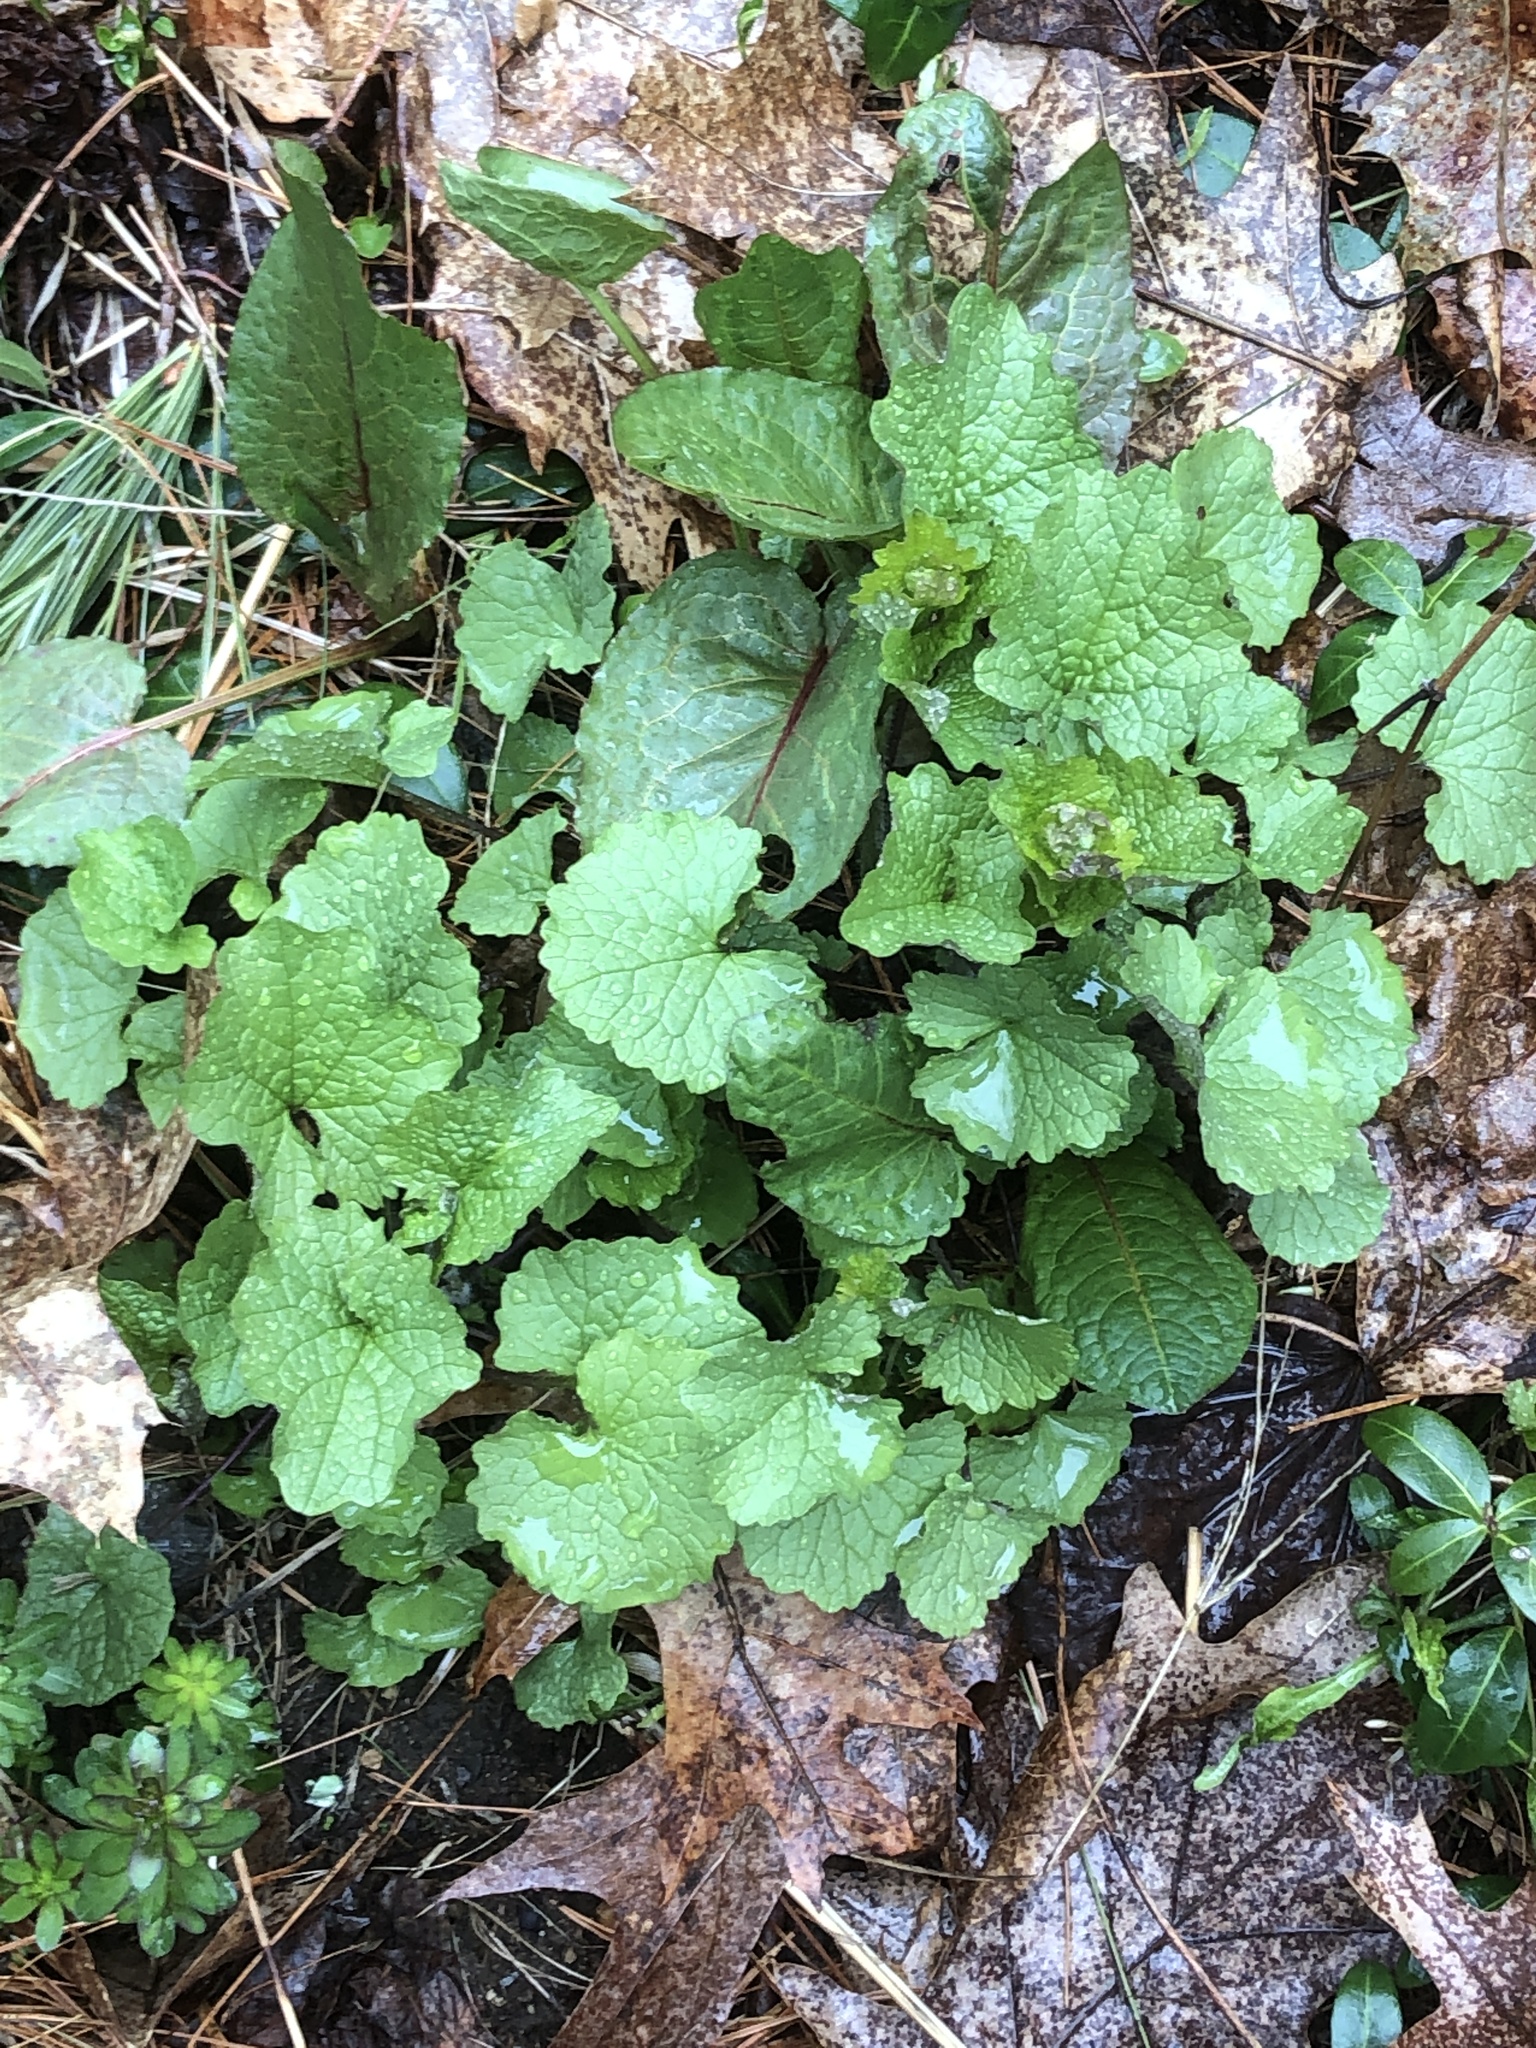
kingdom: Plantae
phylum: Tracheophyta
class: Magnoliopsida
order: Brassicales
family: Brassicaceae
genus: Alliaria
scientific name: Alliaria petiolata
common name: Garlic mustard
